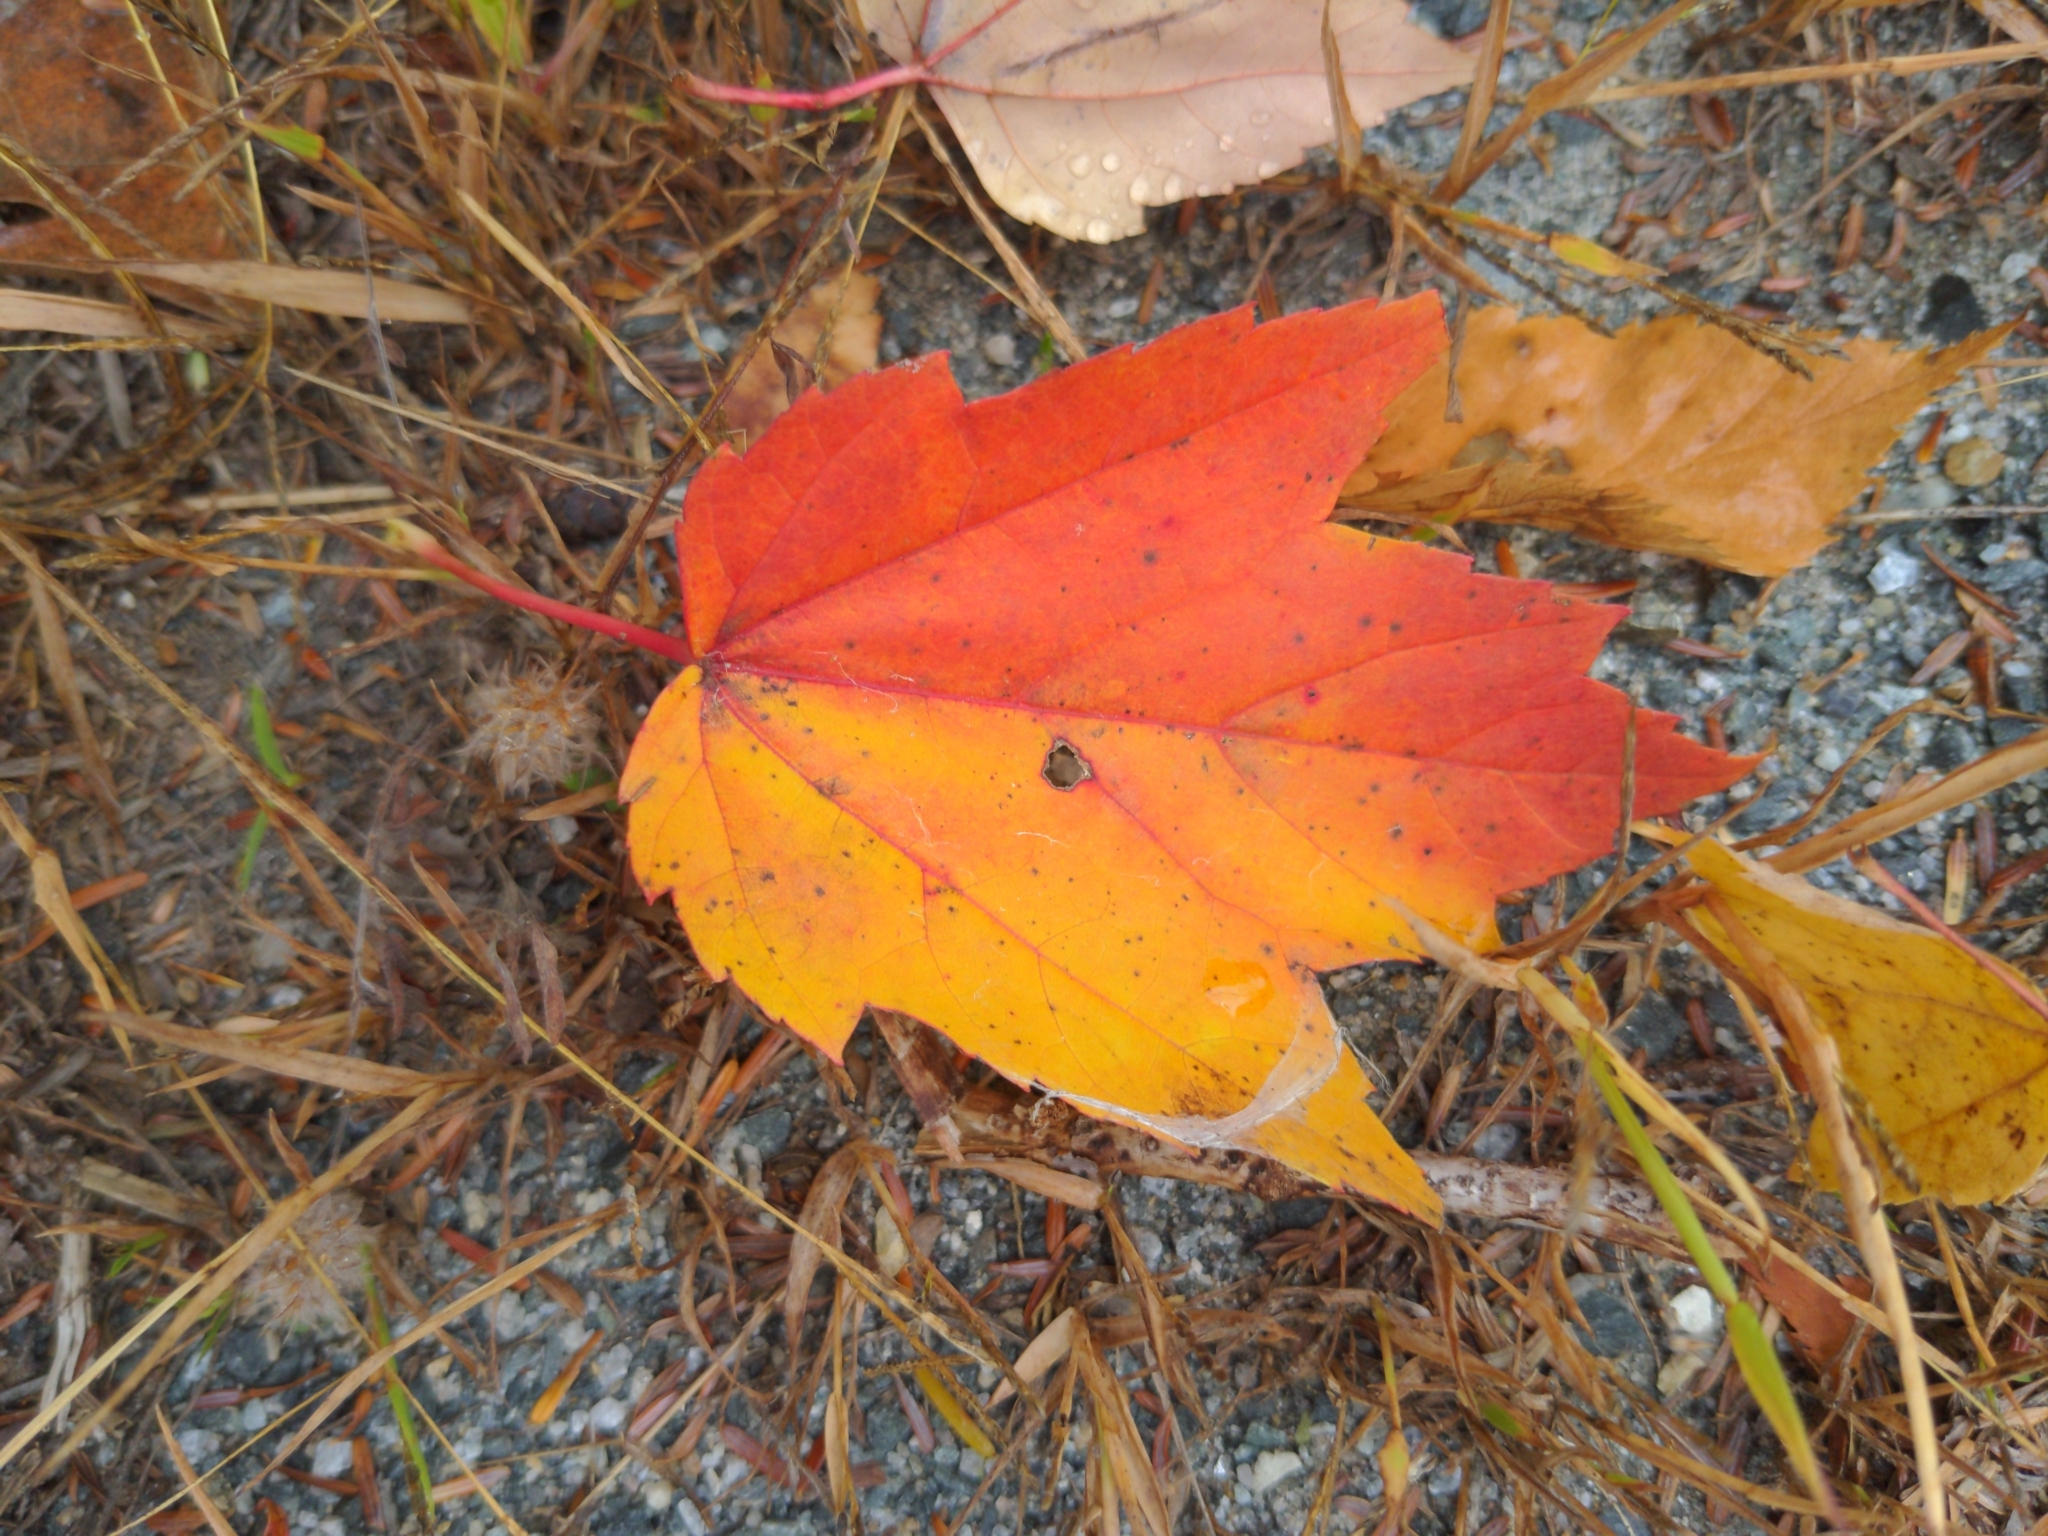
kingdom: Plantae
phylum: Tracheophyta
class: Magnoliopsida
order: Sapindales
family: Sapindaceae
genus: Acer
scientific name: Acer rubrum
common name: Red maple
